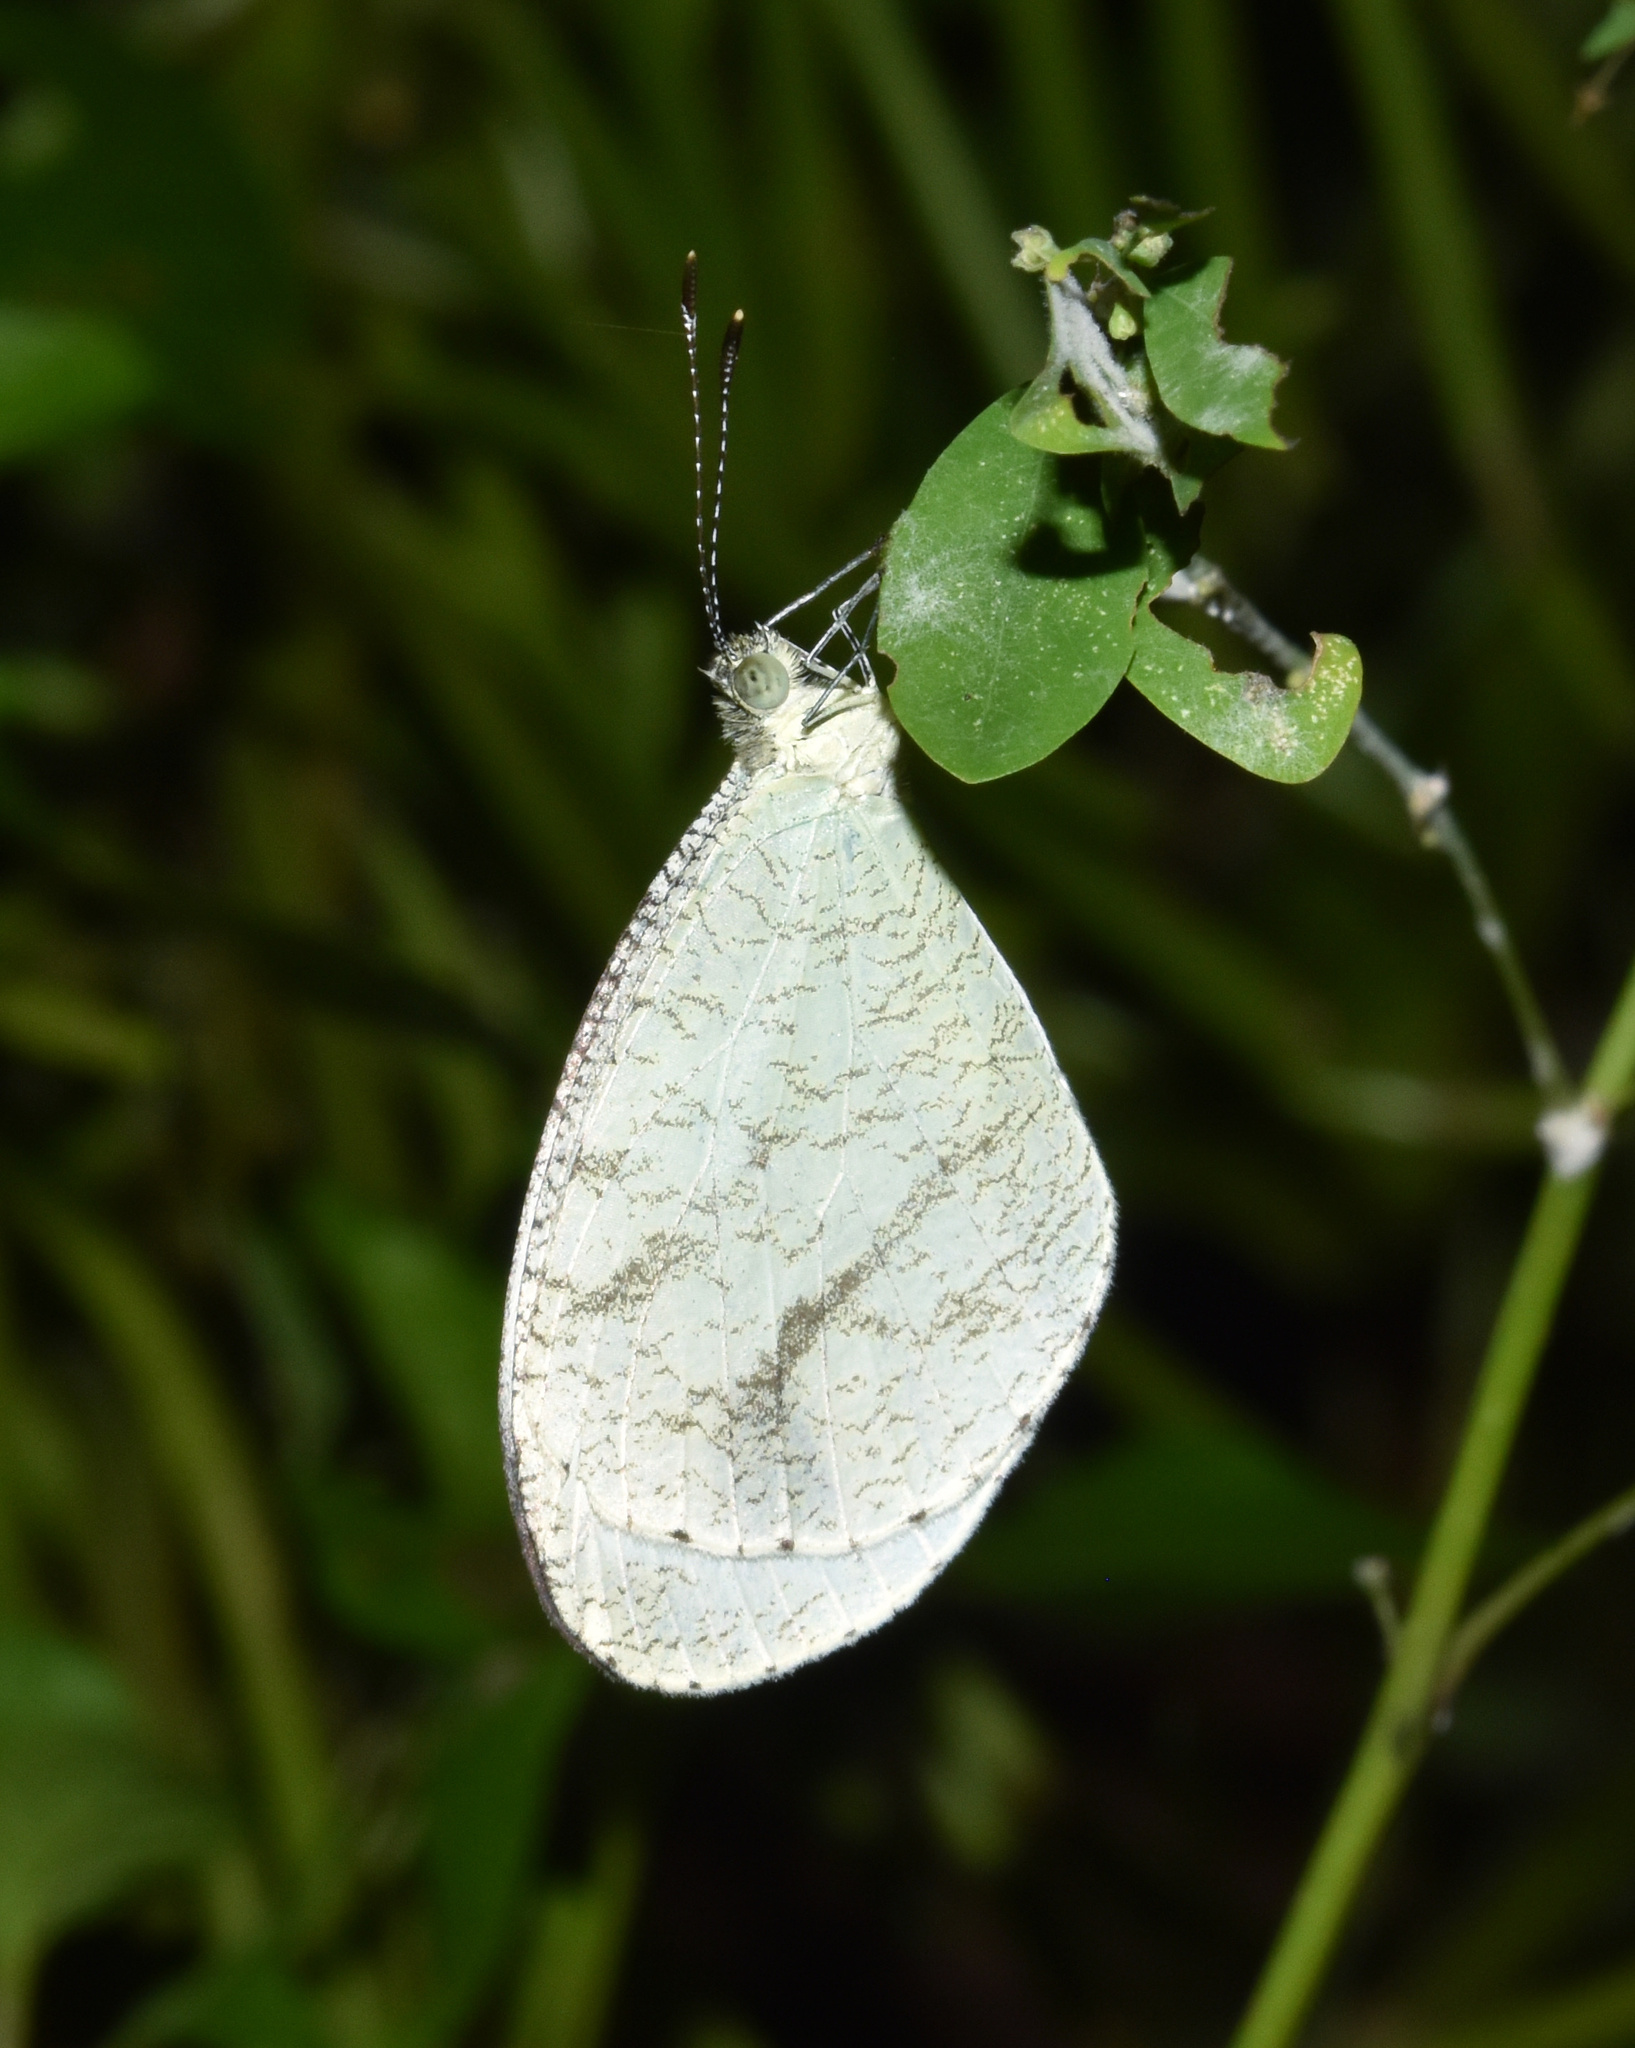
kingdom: Animalia
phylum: Arthropoda
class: Insecta
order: Lepidoptera
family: Pieridae
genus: Leptosia
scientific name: Leptosia alcesta
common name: African wood white
